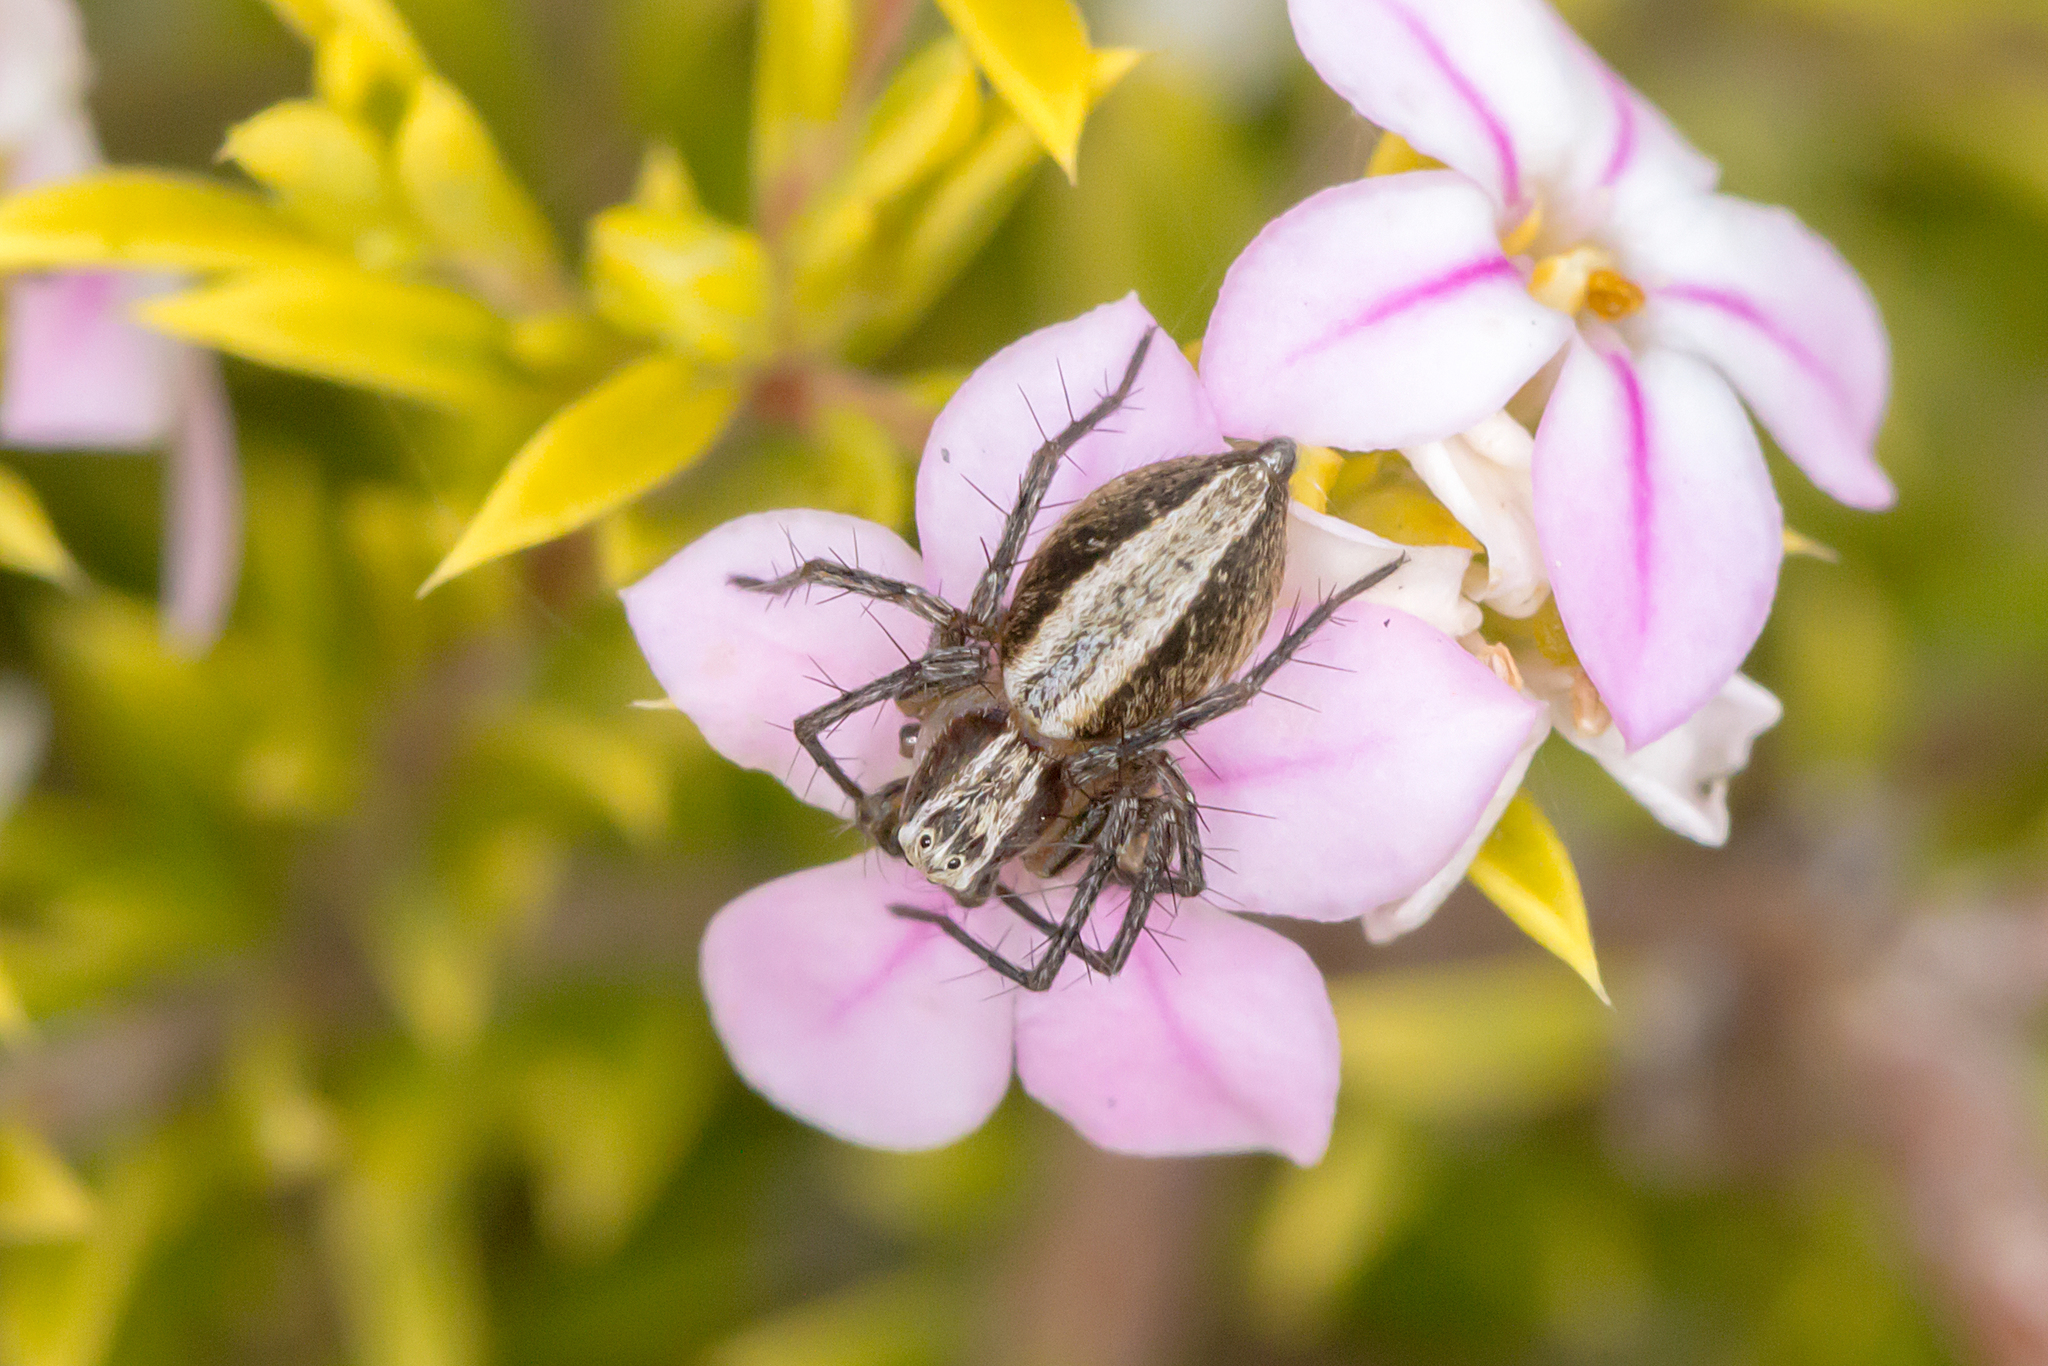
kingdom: Animalia
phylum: Arthropoda
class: Arachnida
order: Araneae
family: Oxyopidae
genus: Oxyopes
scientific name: Oxyopes gracilipes
